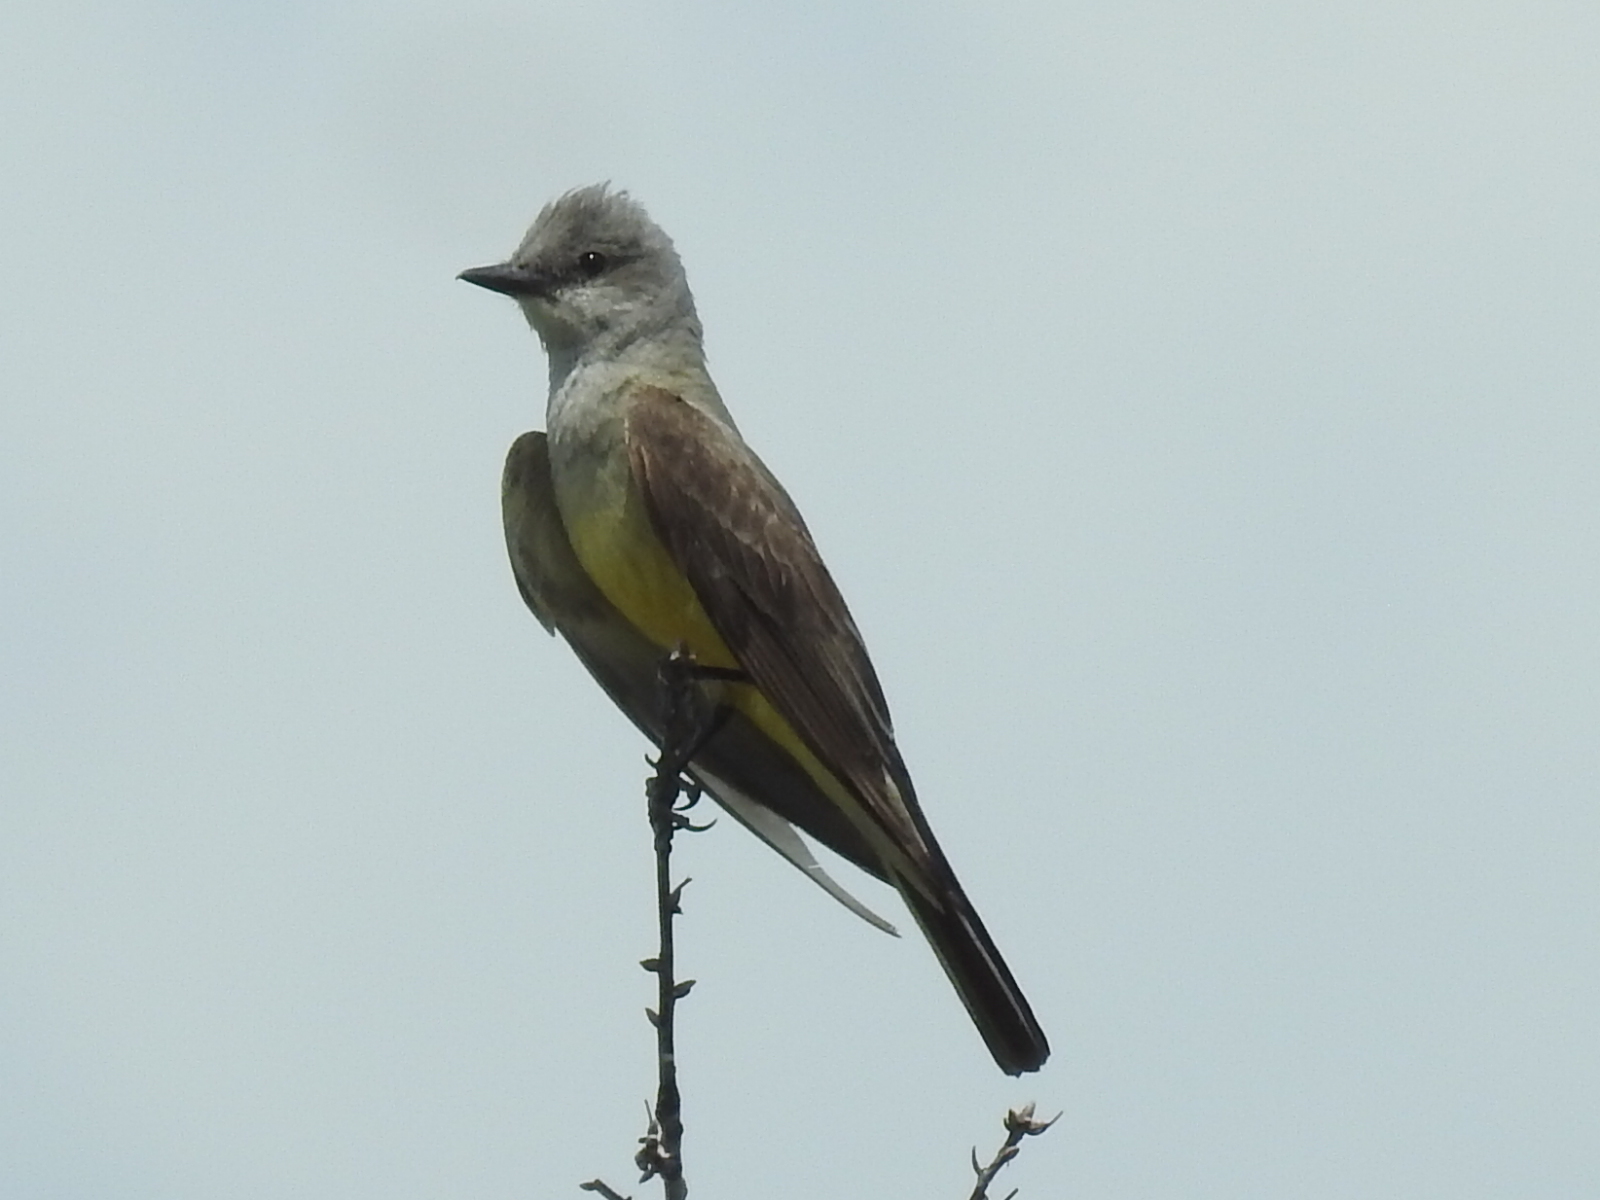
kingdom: Animalia
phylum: Chordata
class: Aves
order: Passeriformes
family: Tyrannidae
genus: Tyrannus
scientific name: Tyrannus verticalis
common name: Western kingbird
